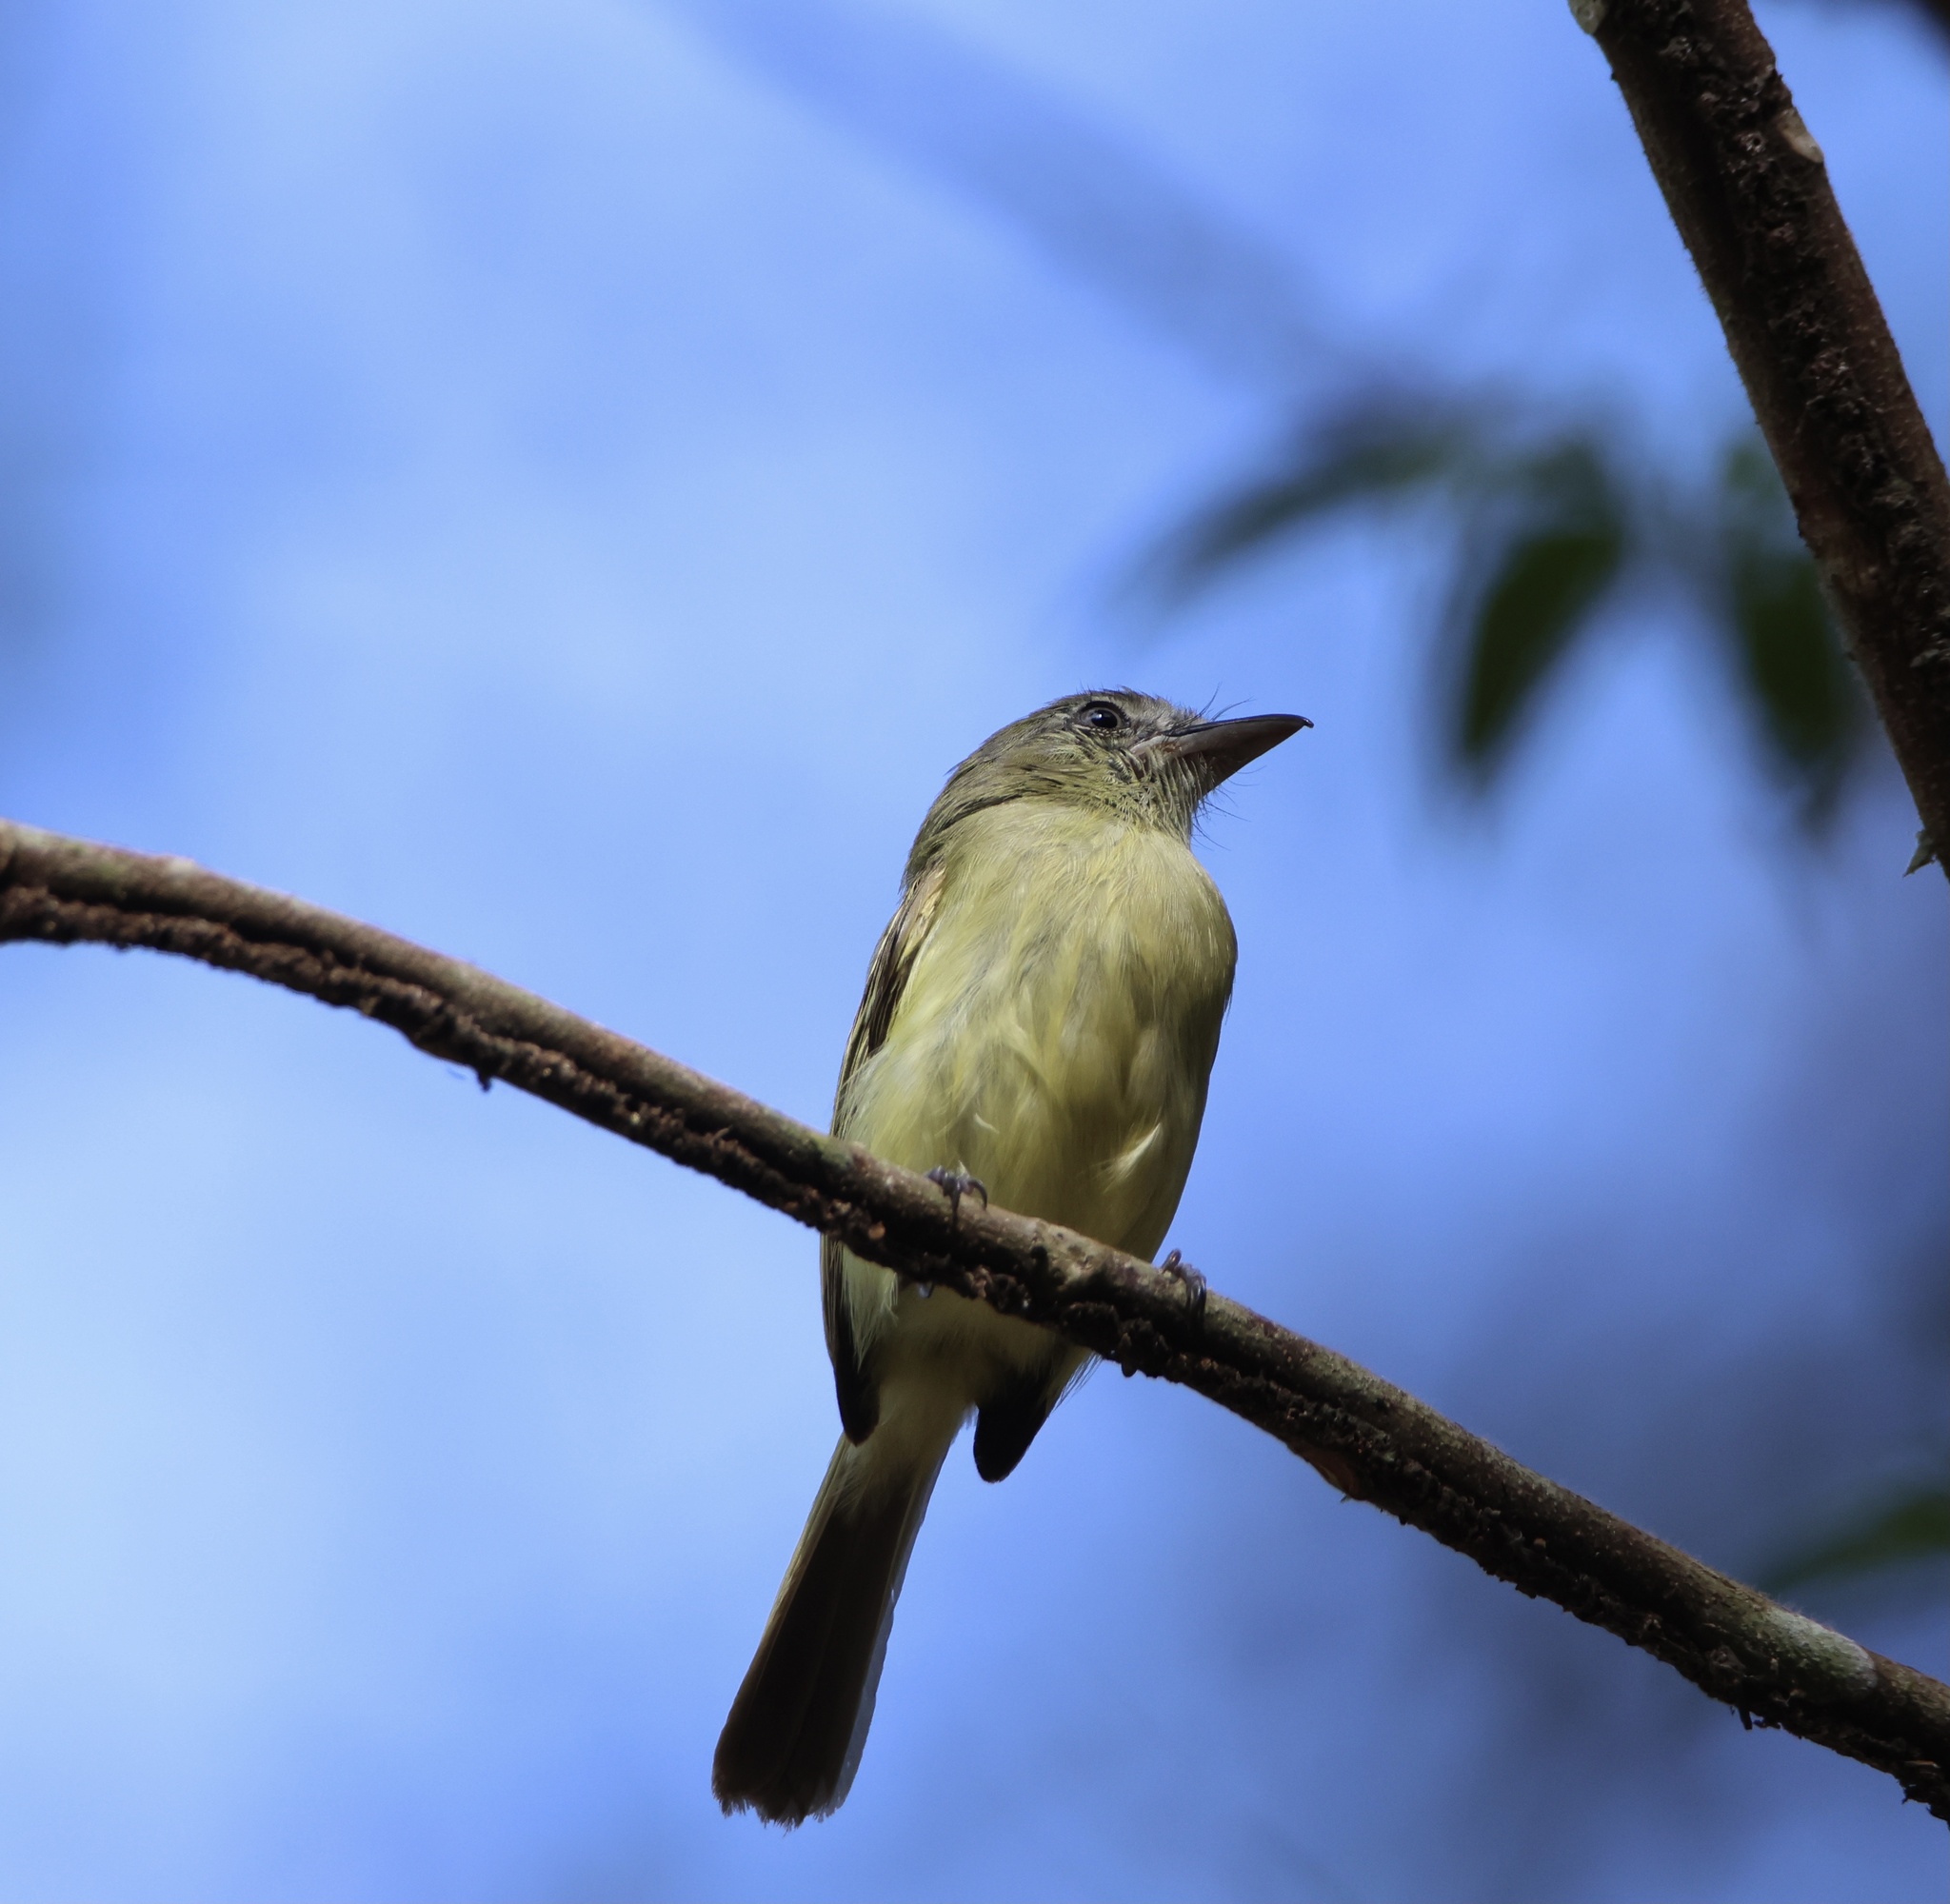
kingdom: Animalia
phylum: Chordata
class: Aves
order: Passeriformes
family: Tyrannidae
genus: Tolmomyias
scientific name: Tolmomyias sulphurescens
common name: Yellow-olive flycatcher
